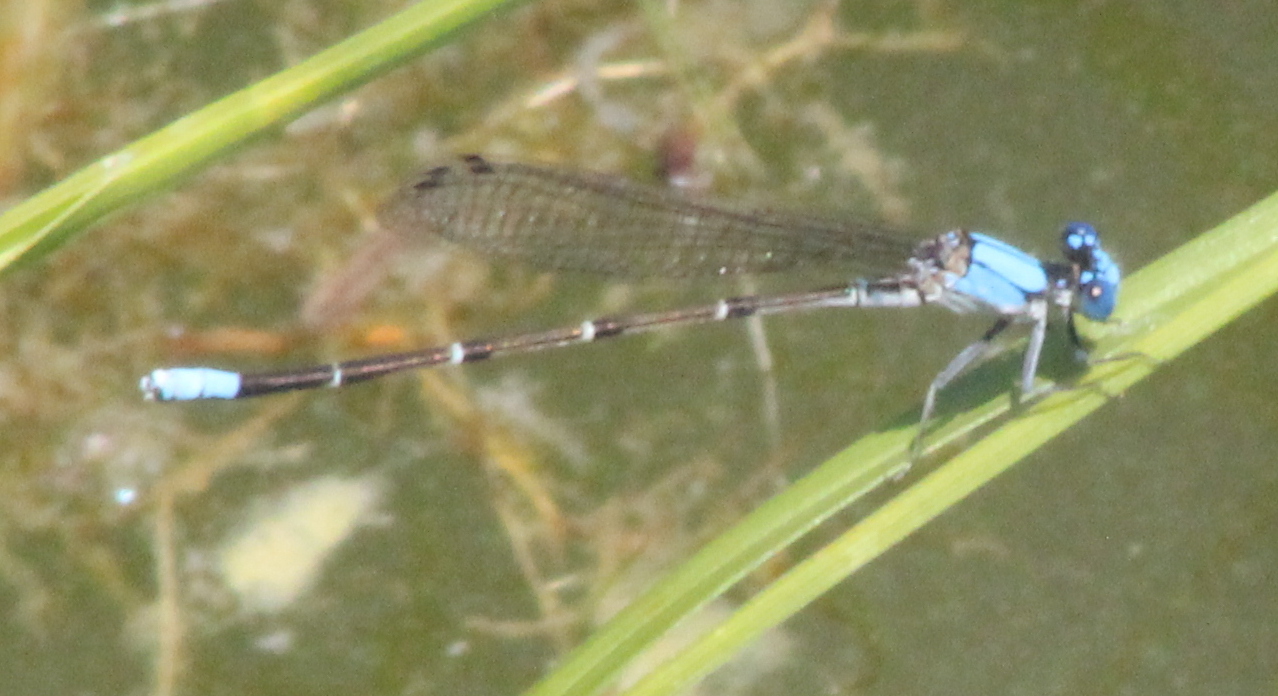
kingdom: Animalia
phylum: Arthropoda
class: Insecta
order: Odonata
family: Coenagrionidae
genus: Argia
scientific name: Argia apicalis
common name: Blue-fronted dancer
